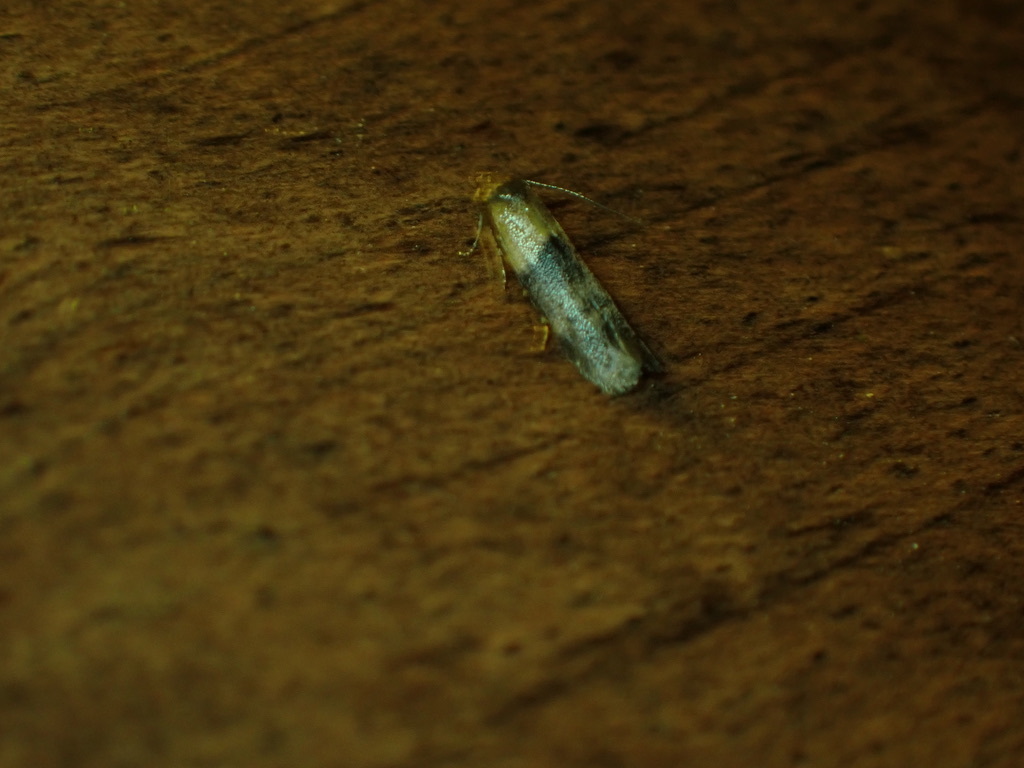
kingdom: Animalia
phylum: Arthropoda
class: Insecta
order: Lepidoptera
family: Pyralidae
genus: Plodia
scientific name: Plodia interpunctella
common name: Indian meal moth
